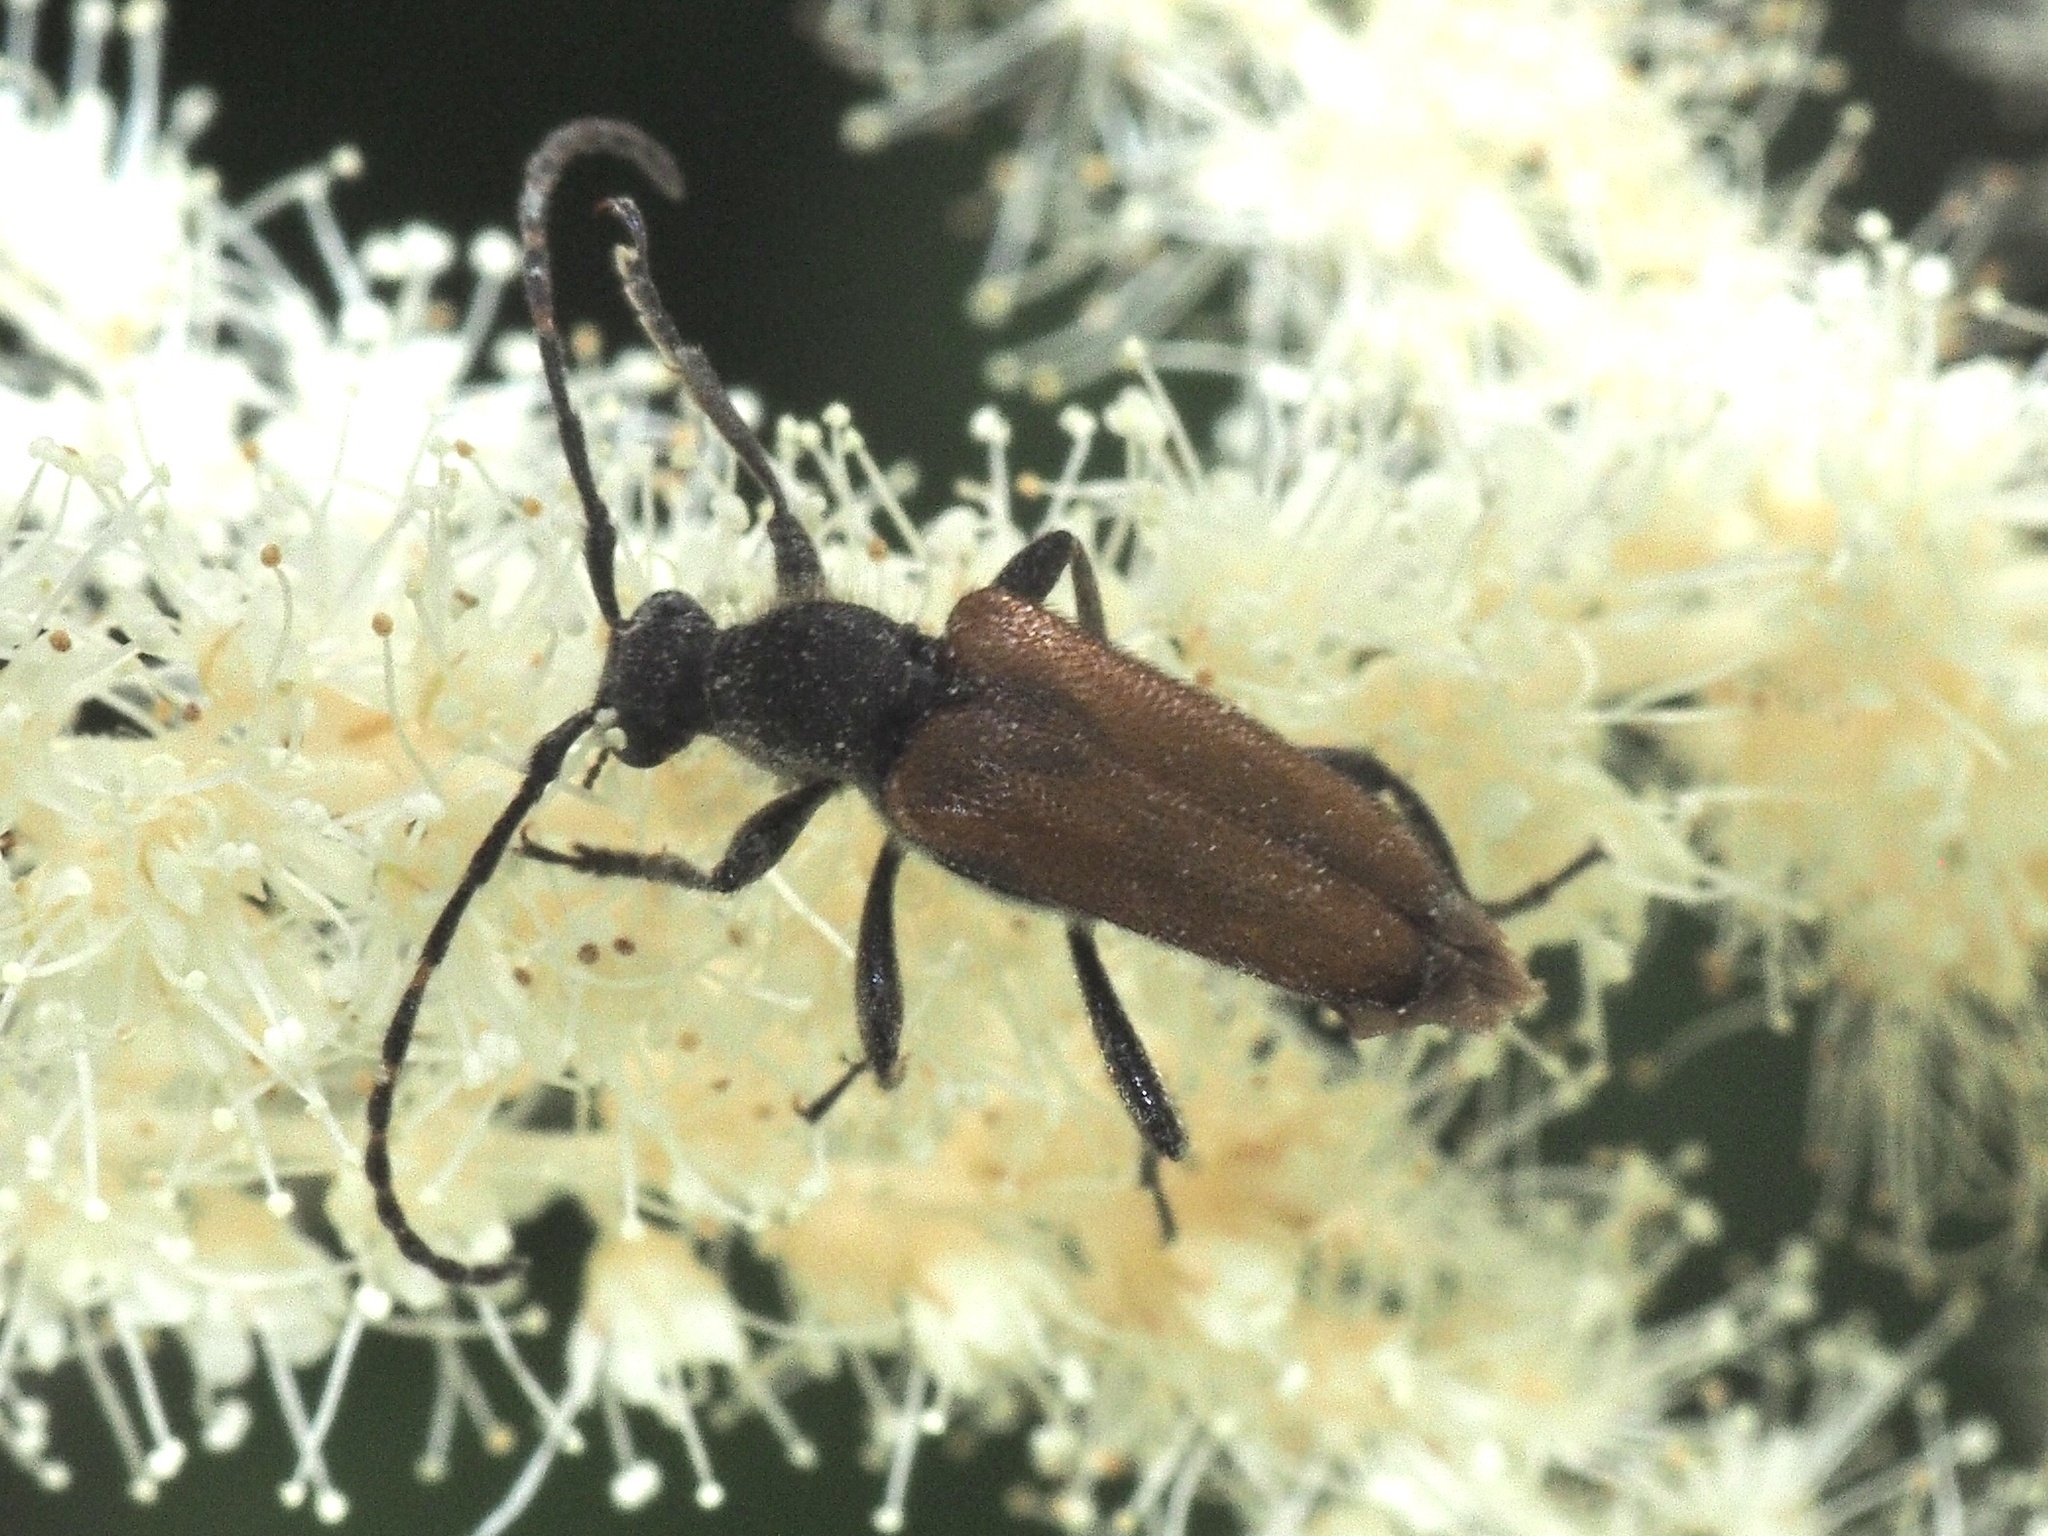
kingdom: Animalia
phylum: Arthropoda
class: Insecta
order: Coleoptera
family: Cerambycidae
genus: Paracorymbia
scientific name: Paracorymbia maculicornis
